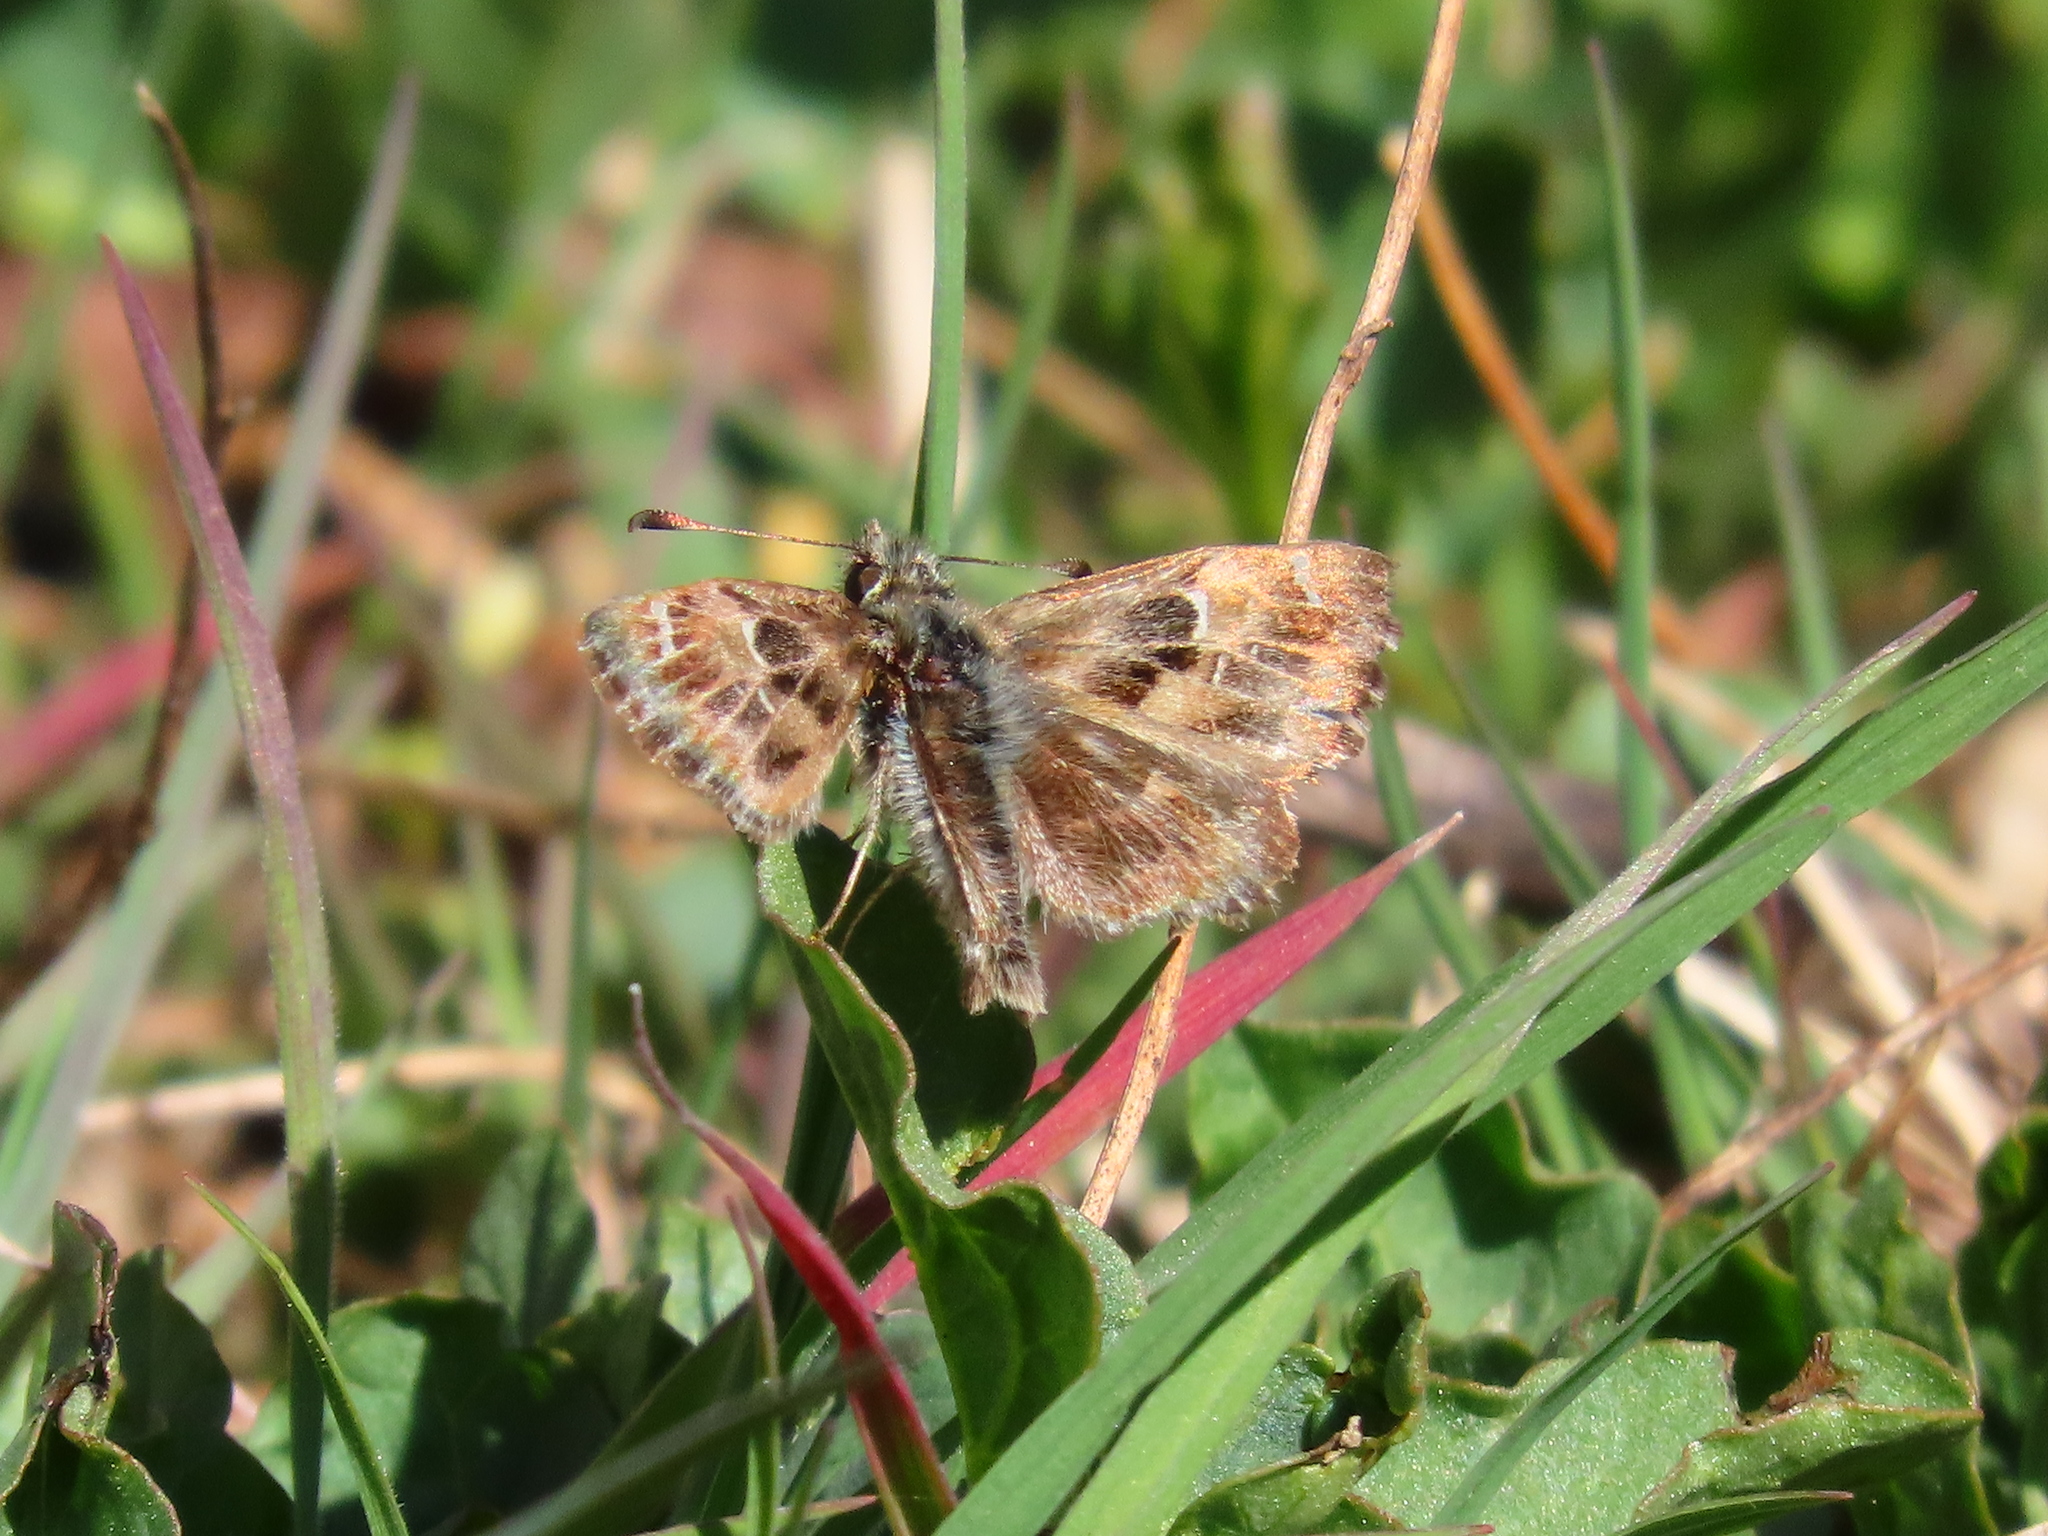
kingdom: Animalia
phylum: Arthropoda
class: Insecta
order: Lepidoptera
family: Hesperiidae
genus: Carcharodus
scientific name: Carcharodus alceae
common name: Mallow skipper
